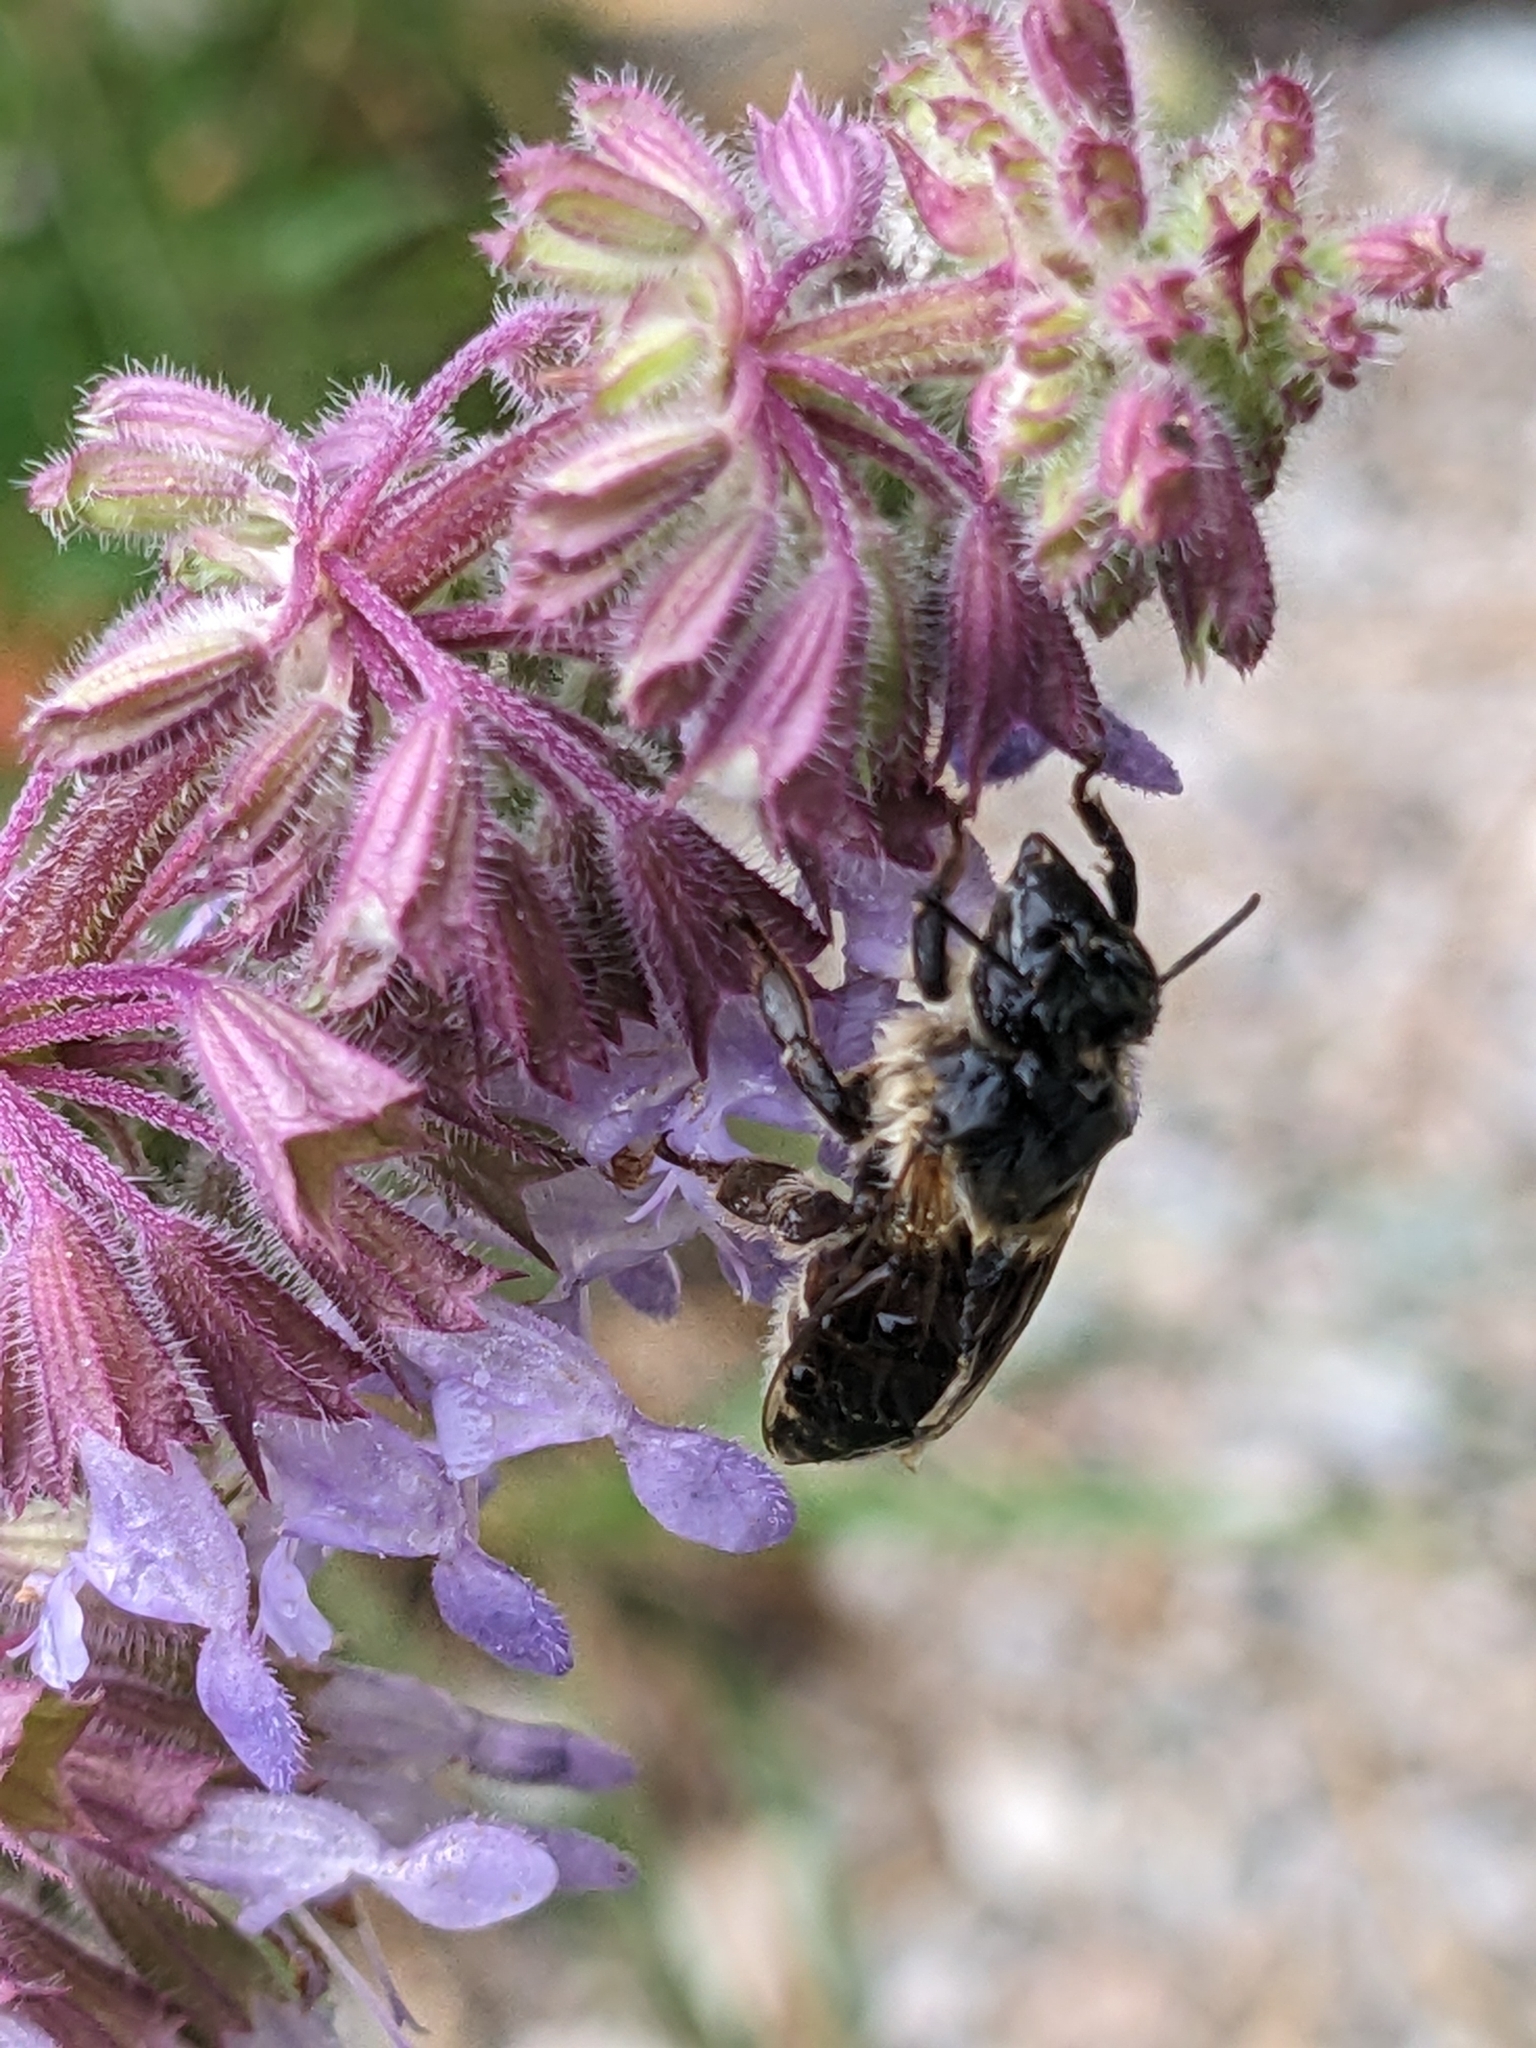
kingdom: Animalia
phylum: Arthropoda
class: Insecta
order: Hymenoptera
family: Apidae
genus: Apis
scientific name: Apis mellifera
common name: Honey bee
